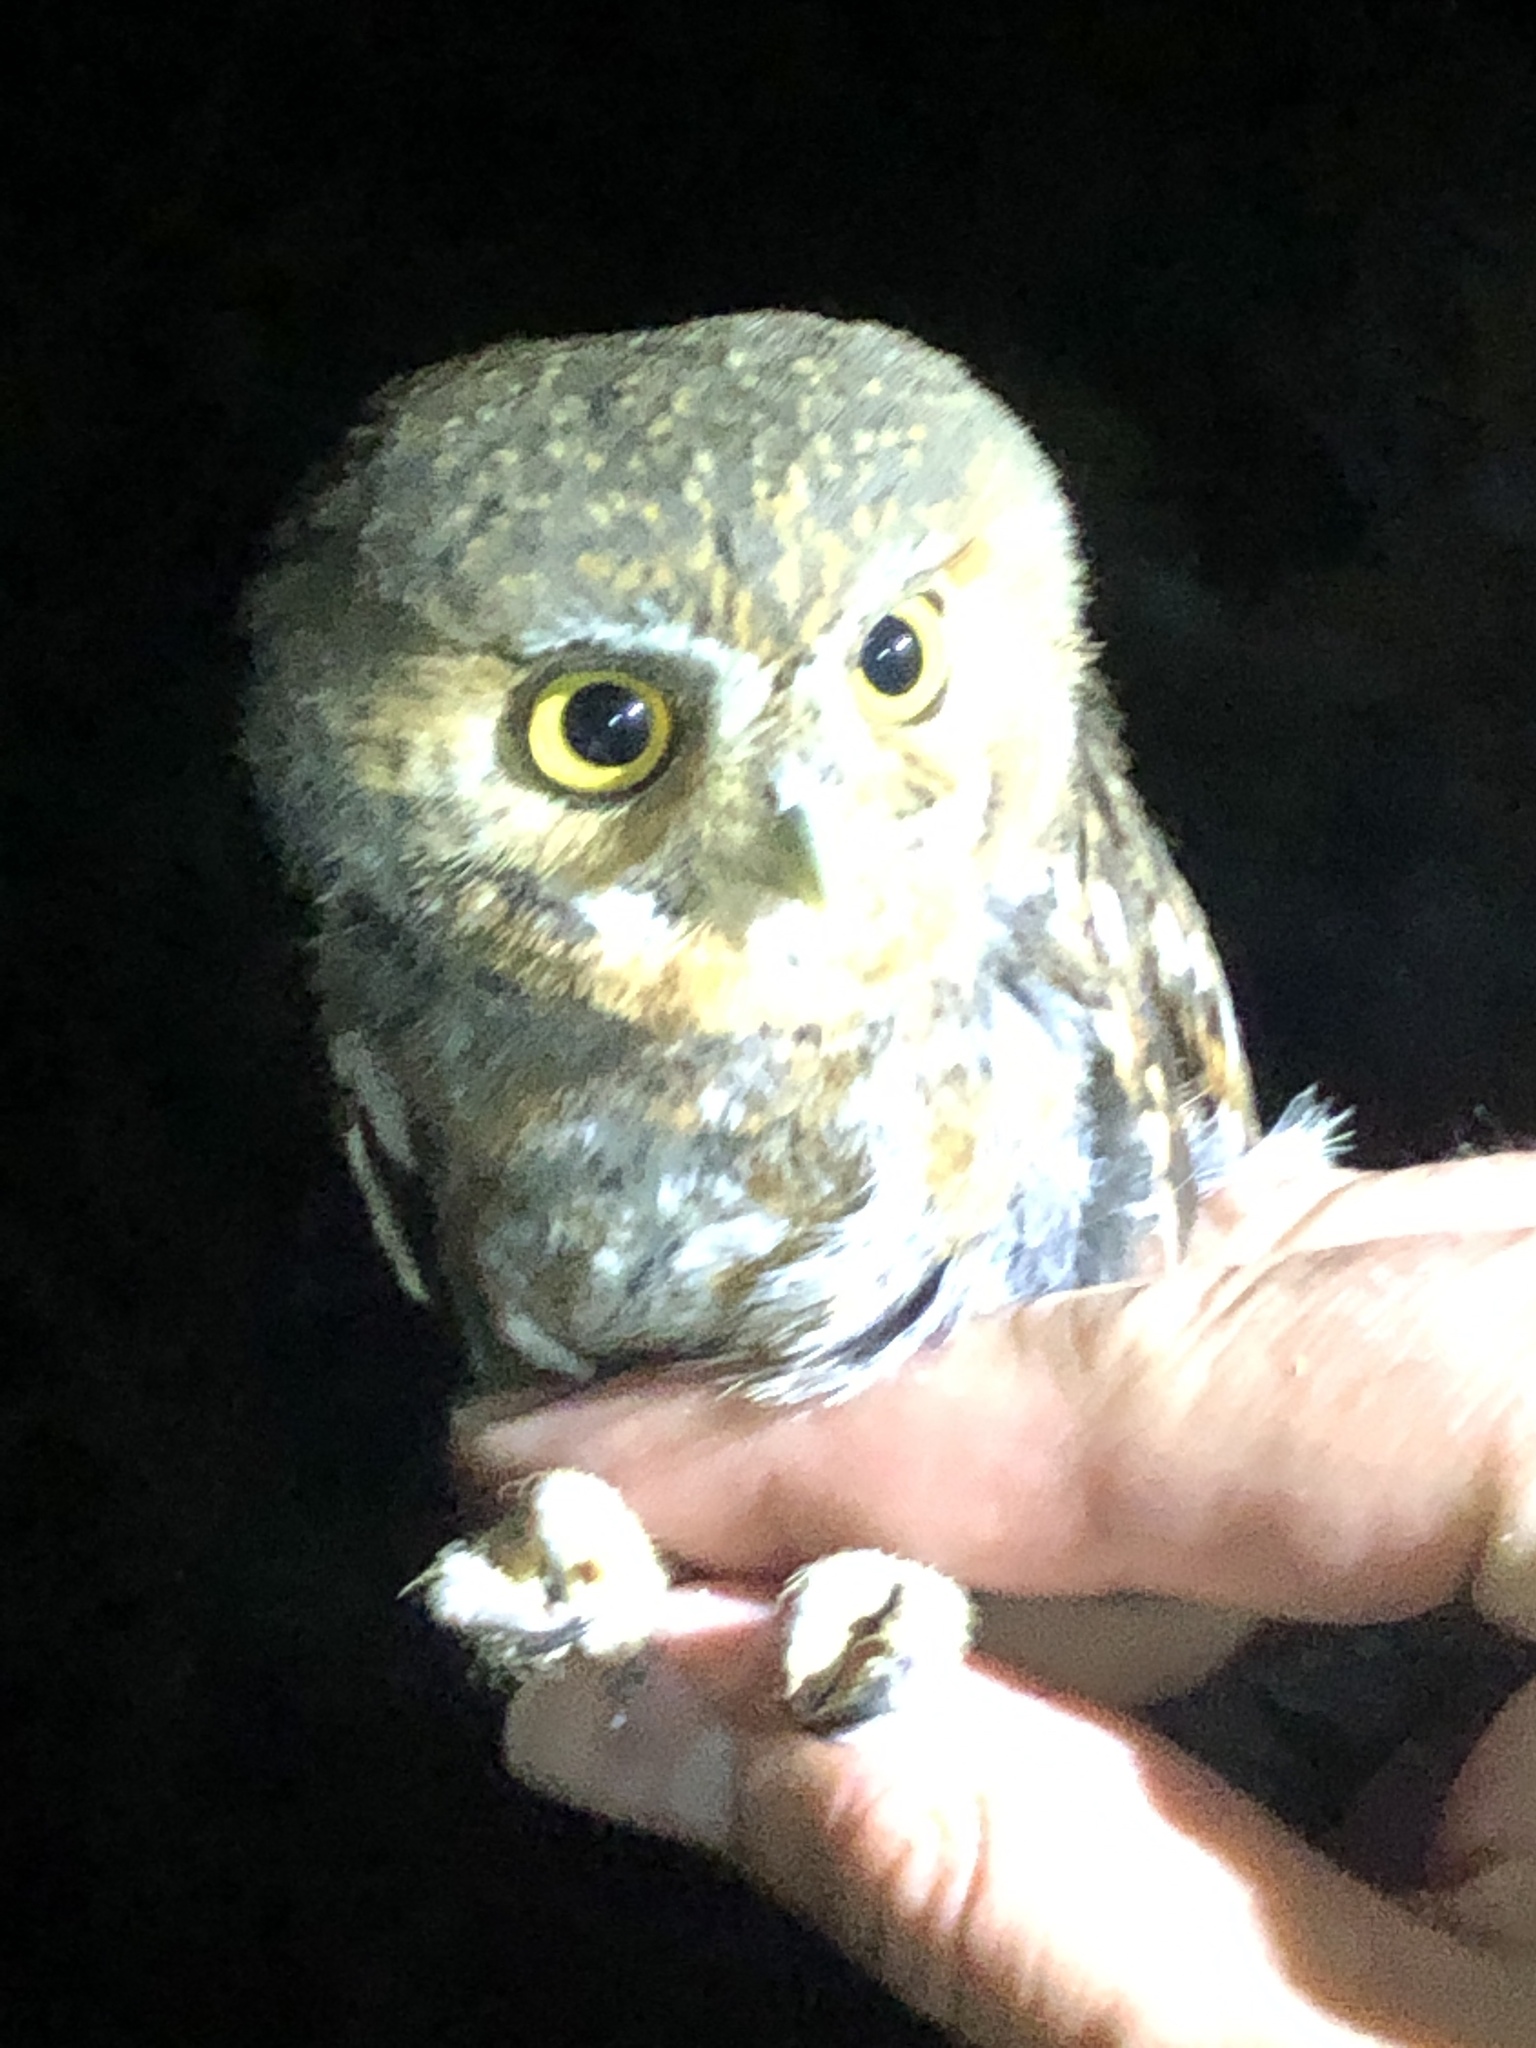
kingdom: Animalia
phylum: Chordata
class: Aves
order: Strigiformes
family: Strigidae
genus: Micrathene
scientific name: Micrathene whitneyi
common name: Elf owl
